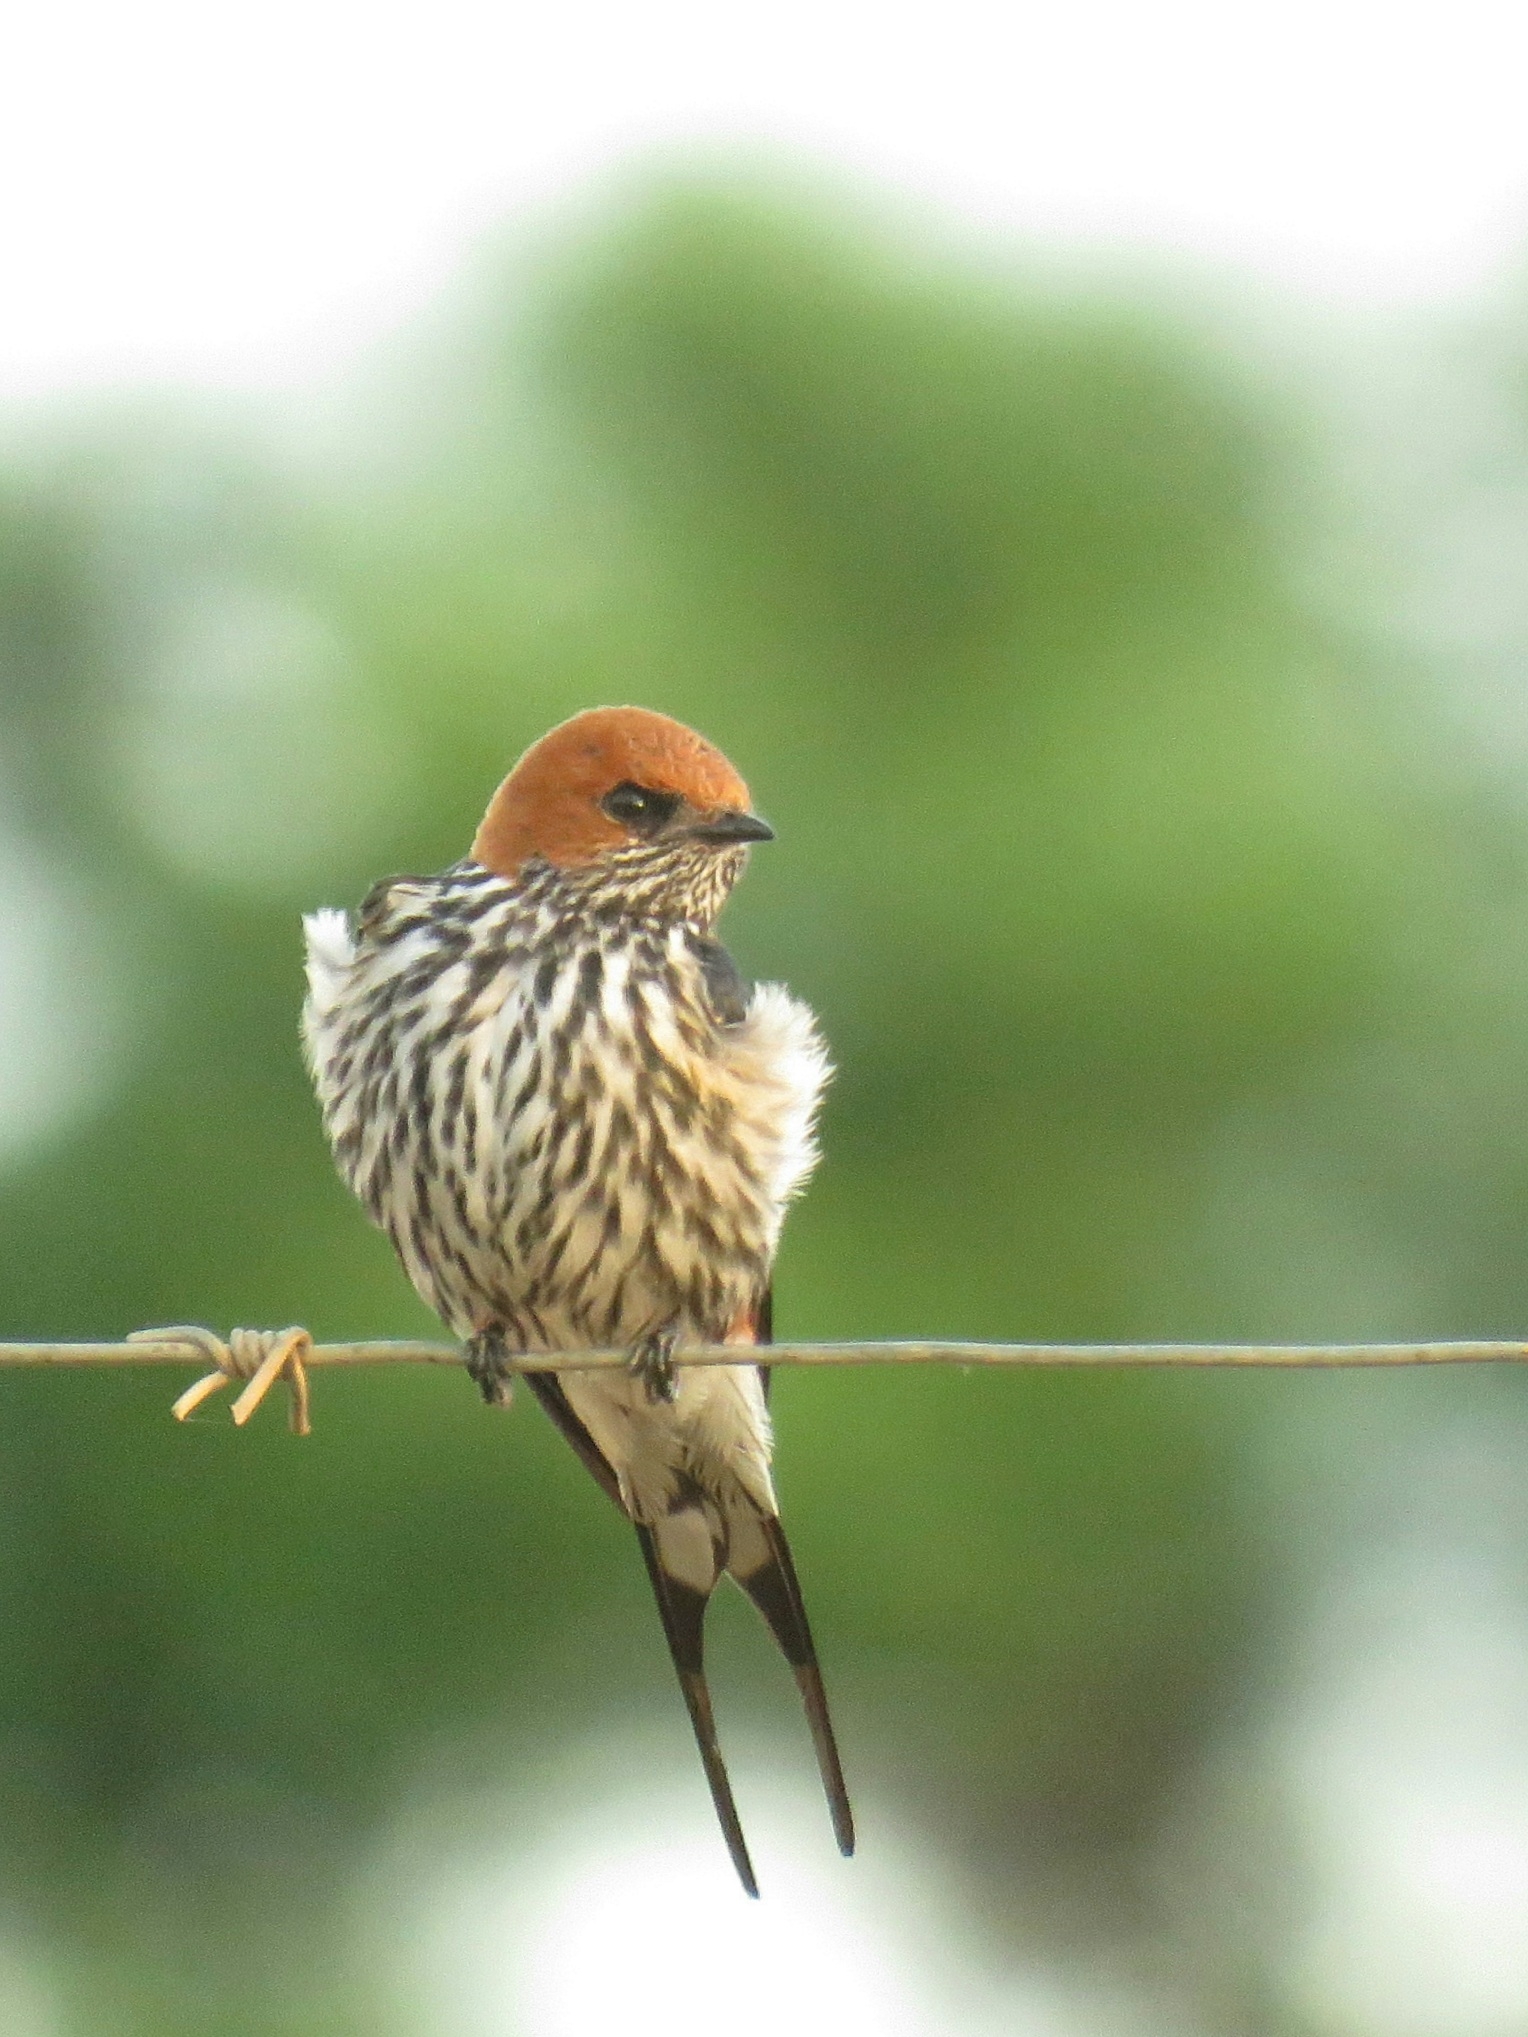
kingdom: Animalia
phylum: Chordata
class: Aves
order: Passeriformes
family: Hirundinidae
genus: Cecropis
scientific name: Cecropis abyssinica
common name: Lesser striped-swallow
